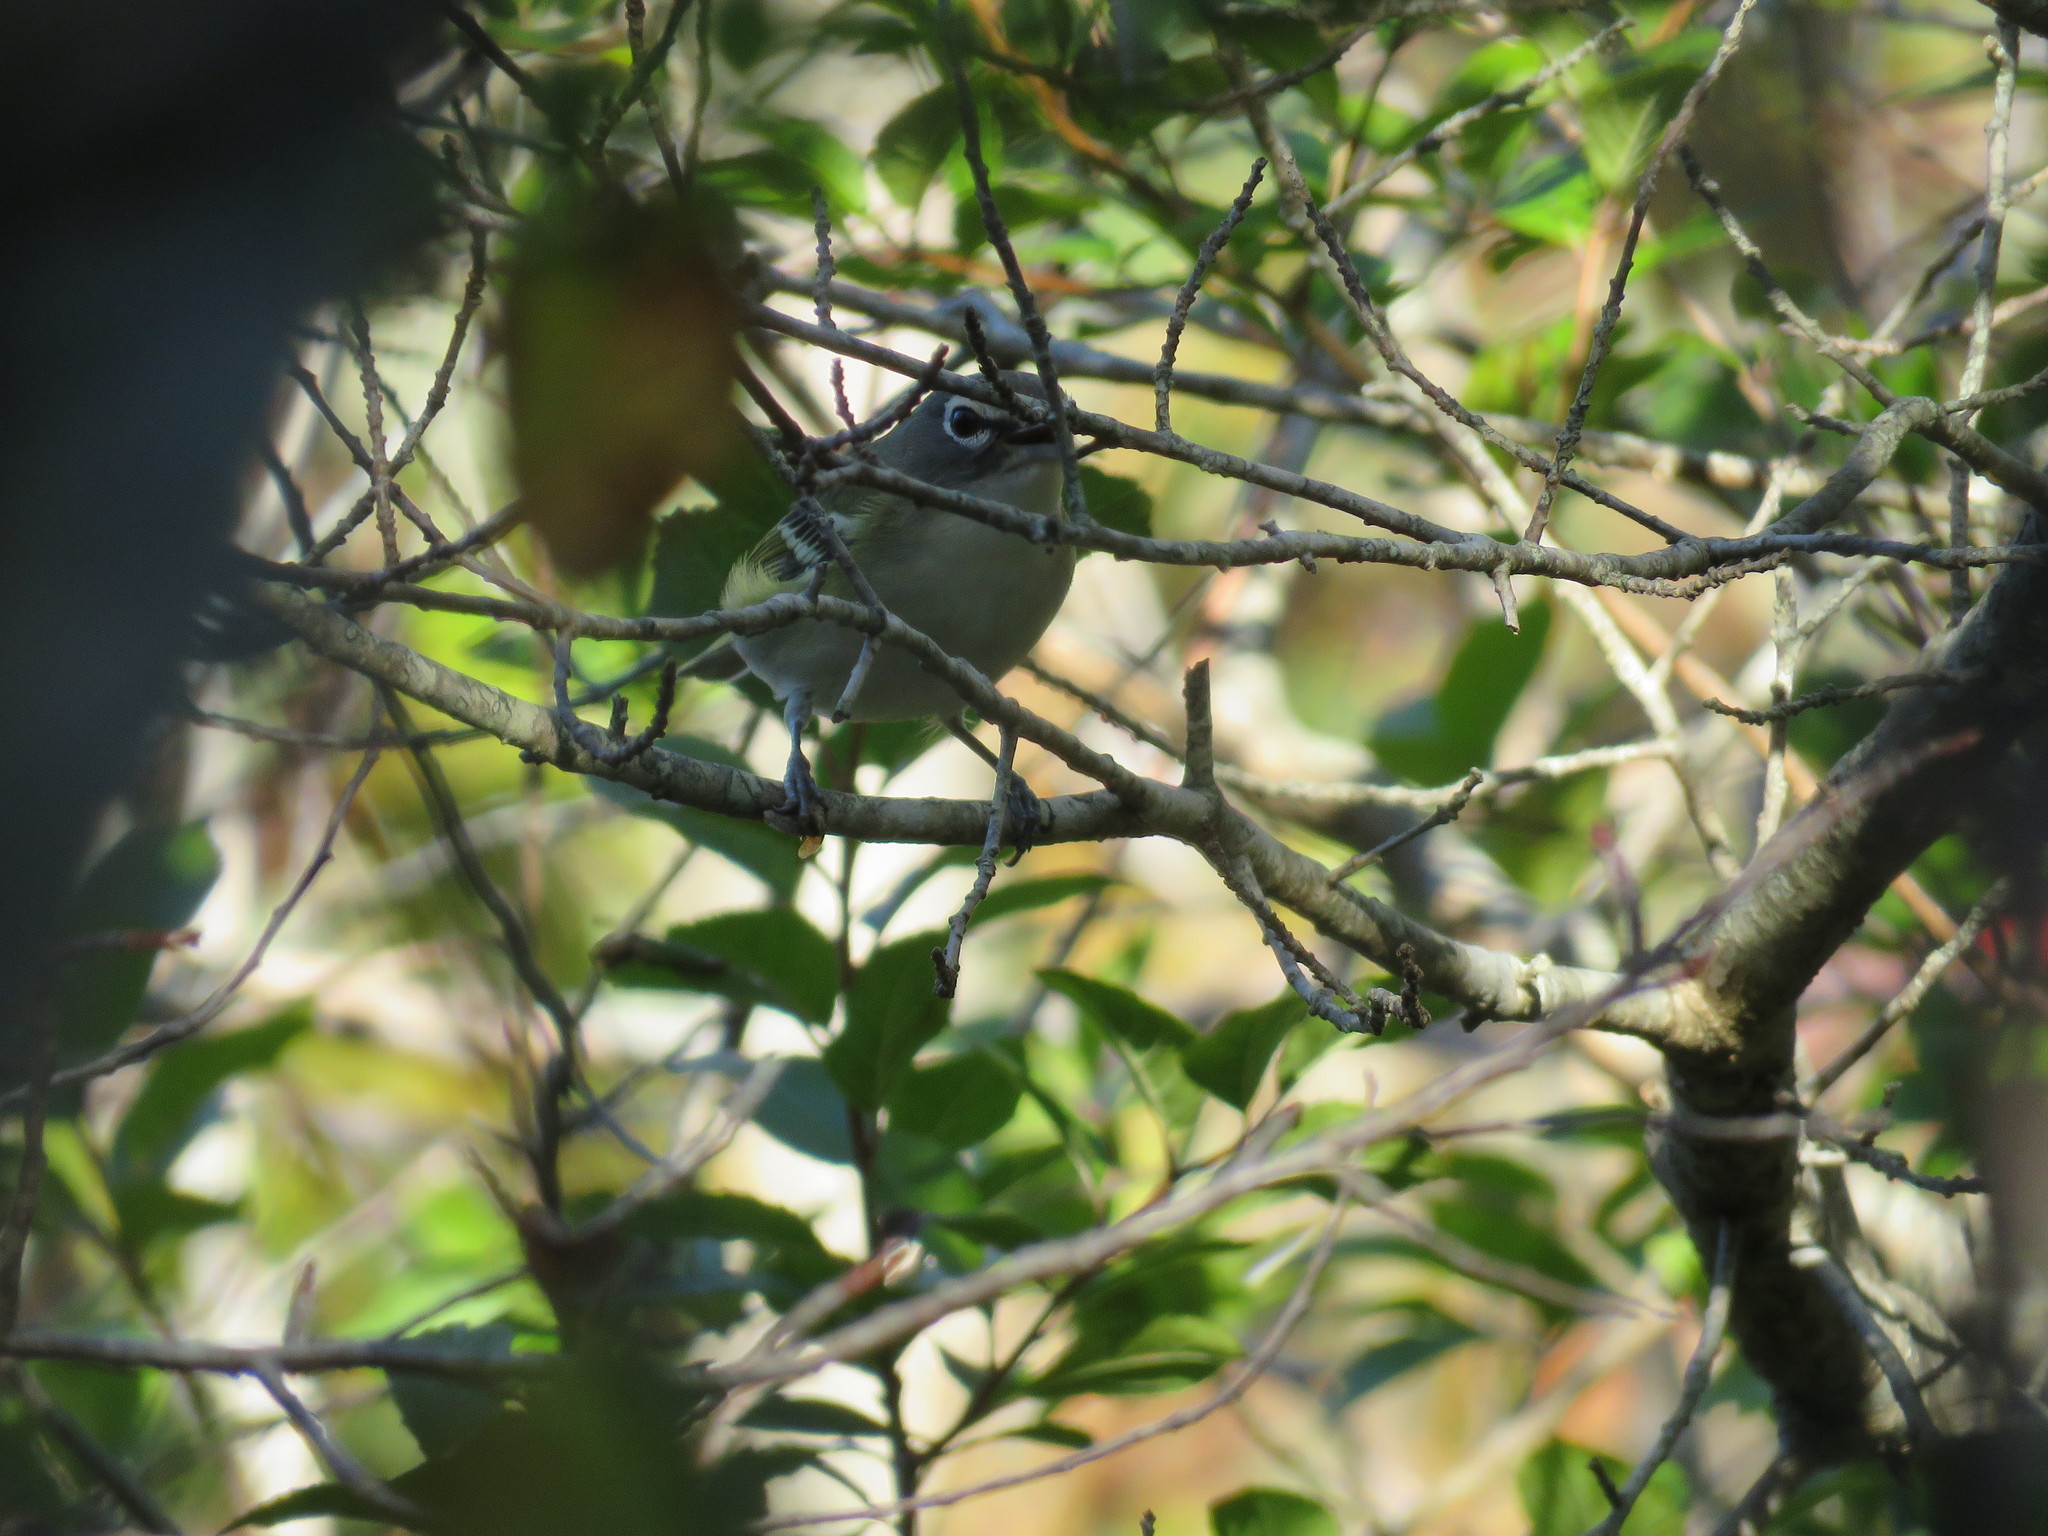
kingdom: Animalia
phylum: Chordata
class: Aves
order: Passeriformes
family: Vireonidae
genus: Vireo
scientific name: Vireo solitarius
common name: Blue-headed vireo
